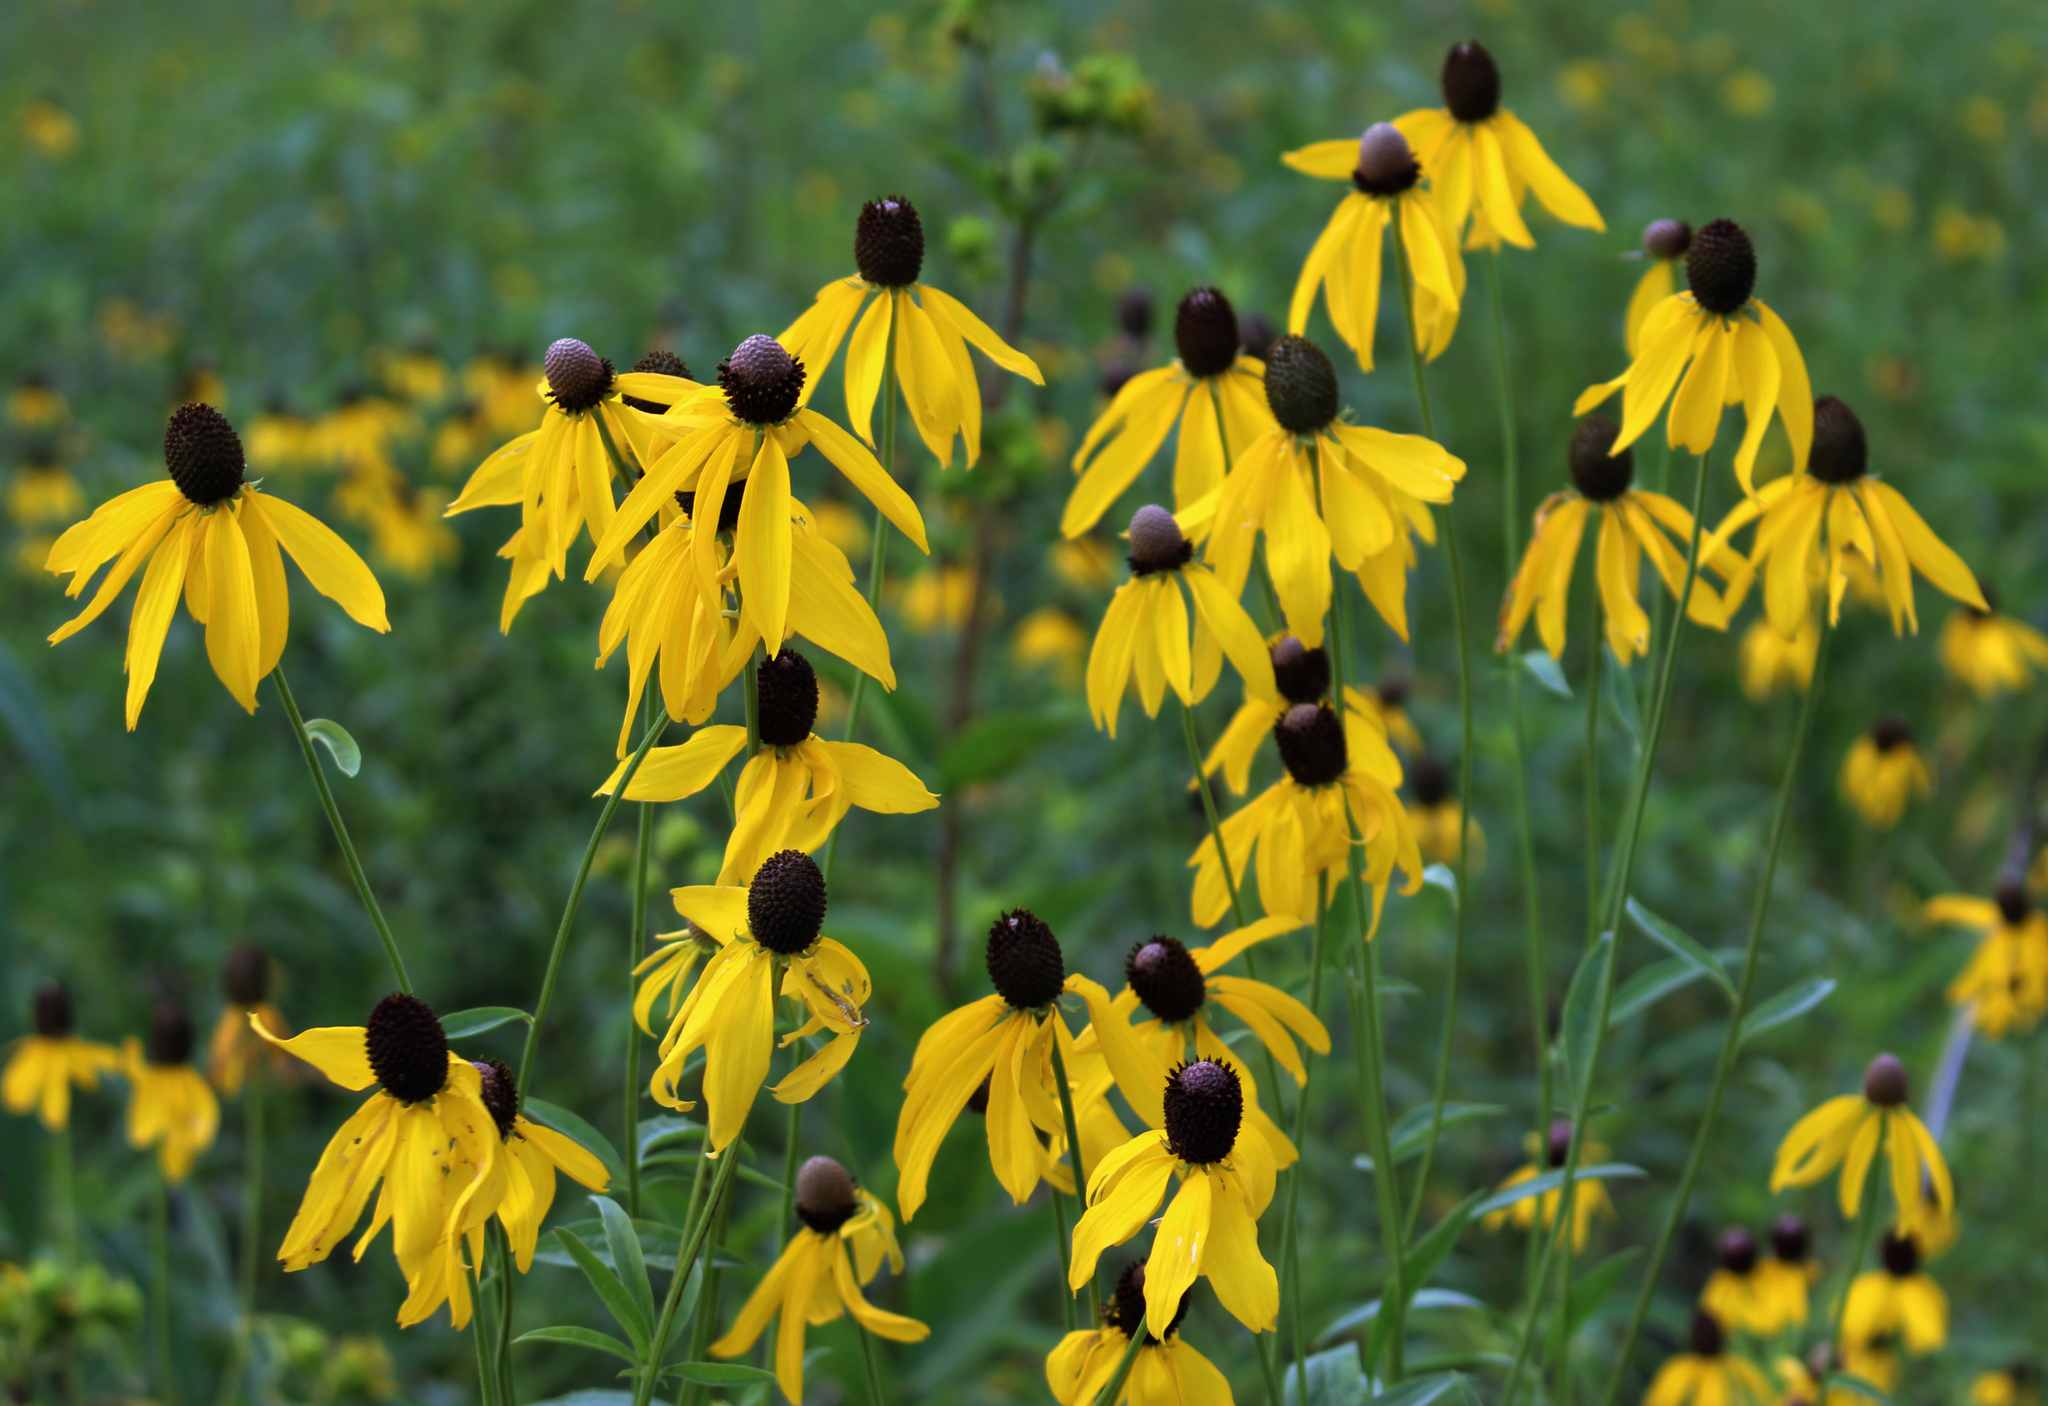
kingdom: Plantae
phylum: Tracheophyta
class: Magnoliopsida
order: Asterales
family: Asteraceae
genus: Ratibida
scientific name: Ratibida pinnata
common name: Drooping prairie-coneflower
